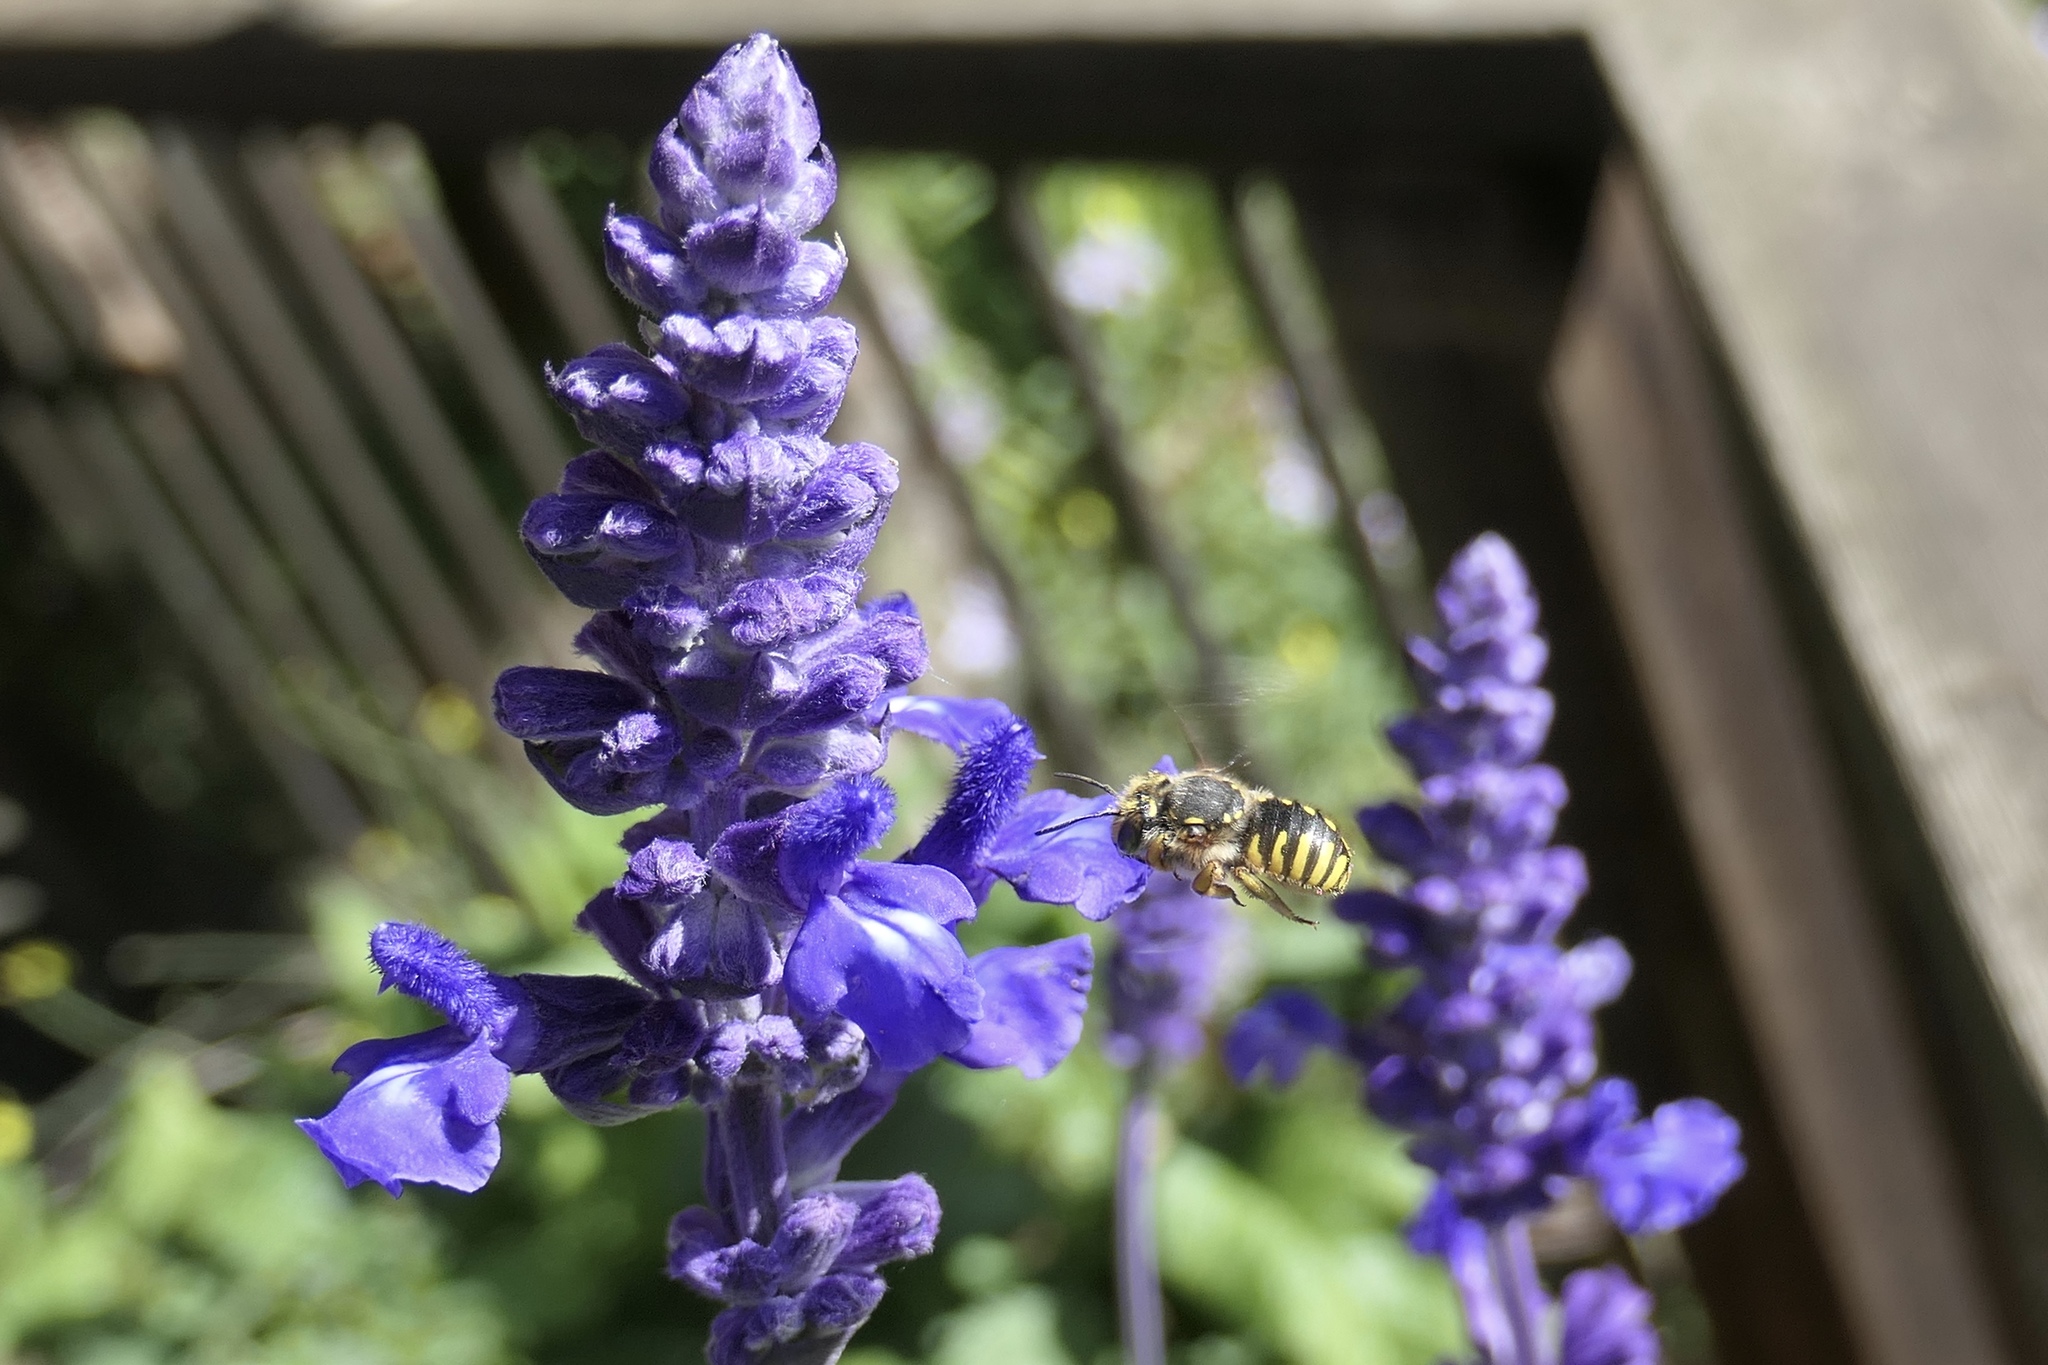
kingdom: Animalia
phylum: Arthropoda
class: Insecta
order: Hymenoptera
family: Megachilidae
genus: Anthidium
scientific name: Anthidium manicatum
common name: Wool carder bee
